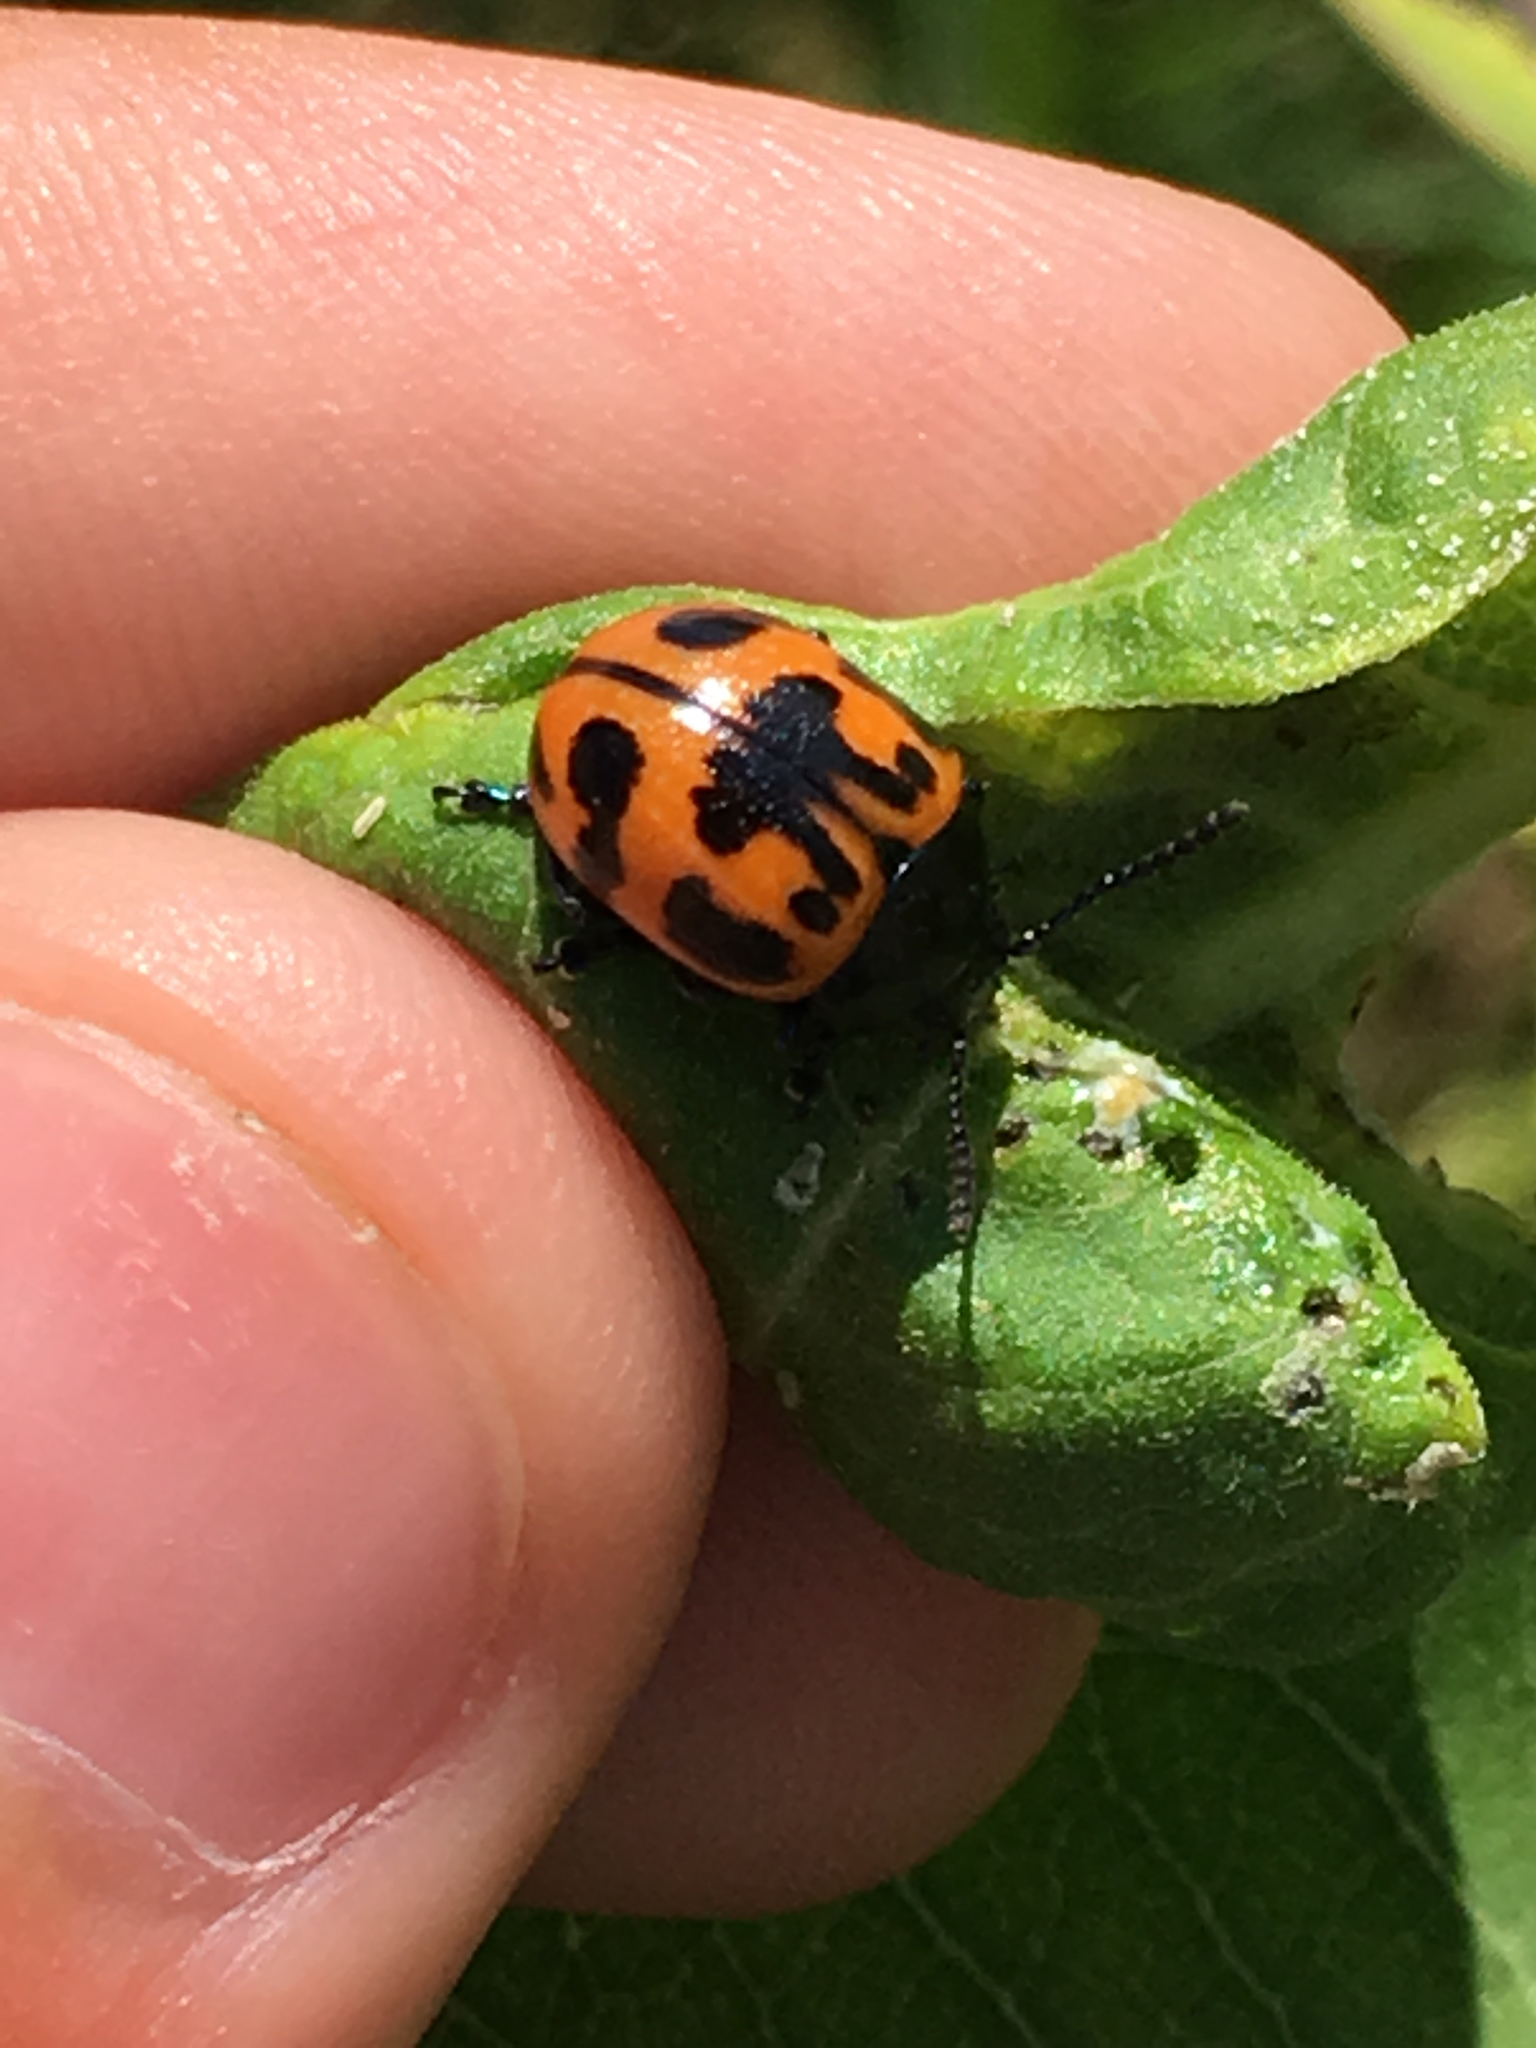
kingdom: Animalia
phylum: Arthropoda
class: Insecta
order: Coleoptera
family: Chrysomelidae
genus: Labidomera
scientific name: Labidomera clivicollis
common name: Swamp milkweed leaf beetle
